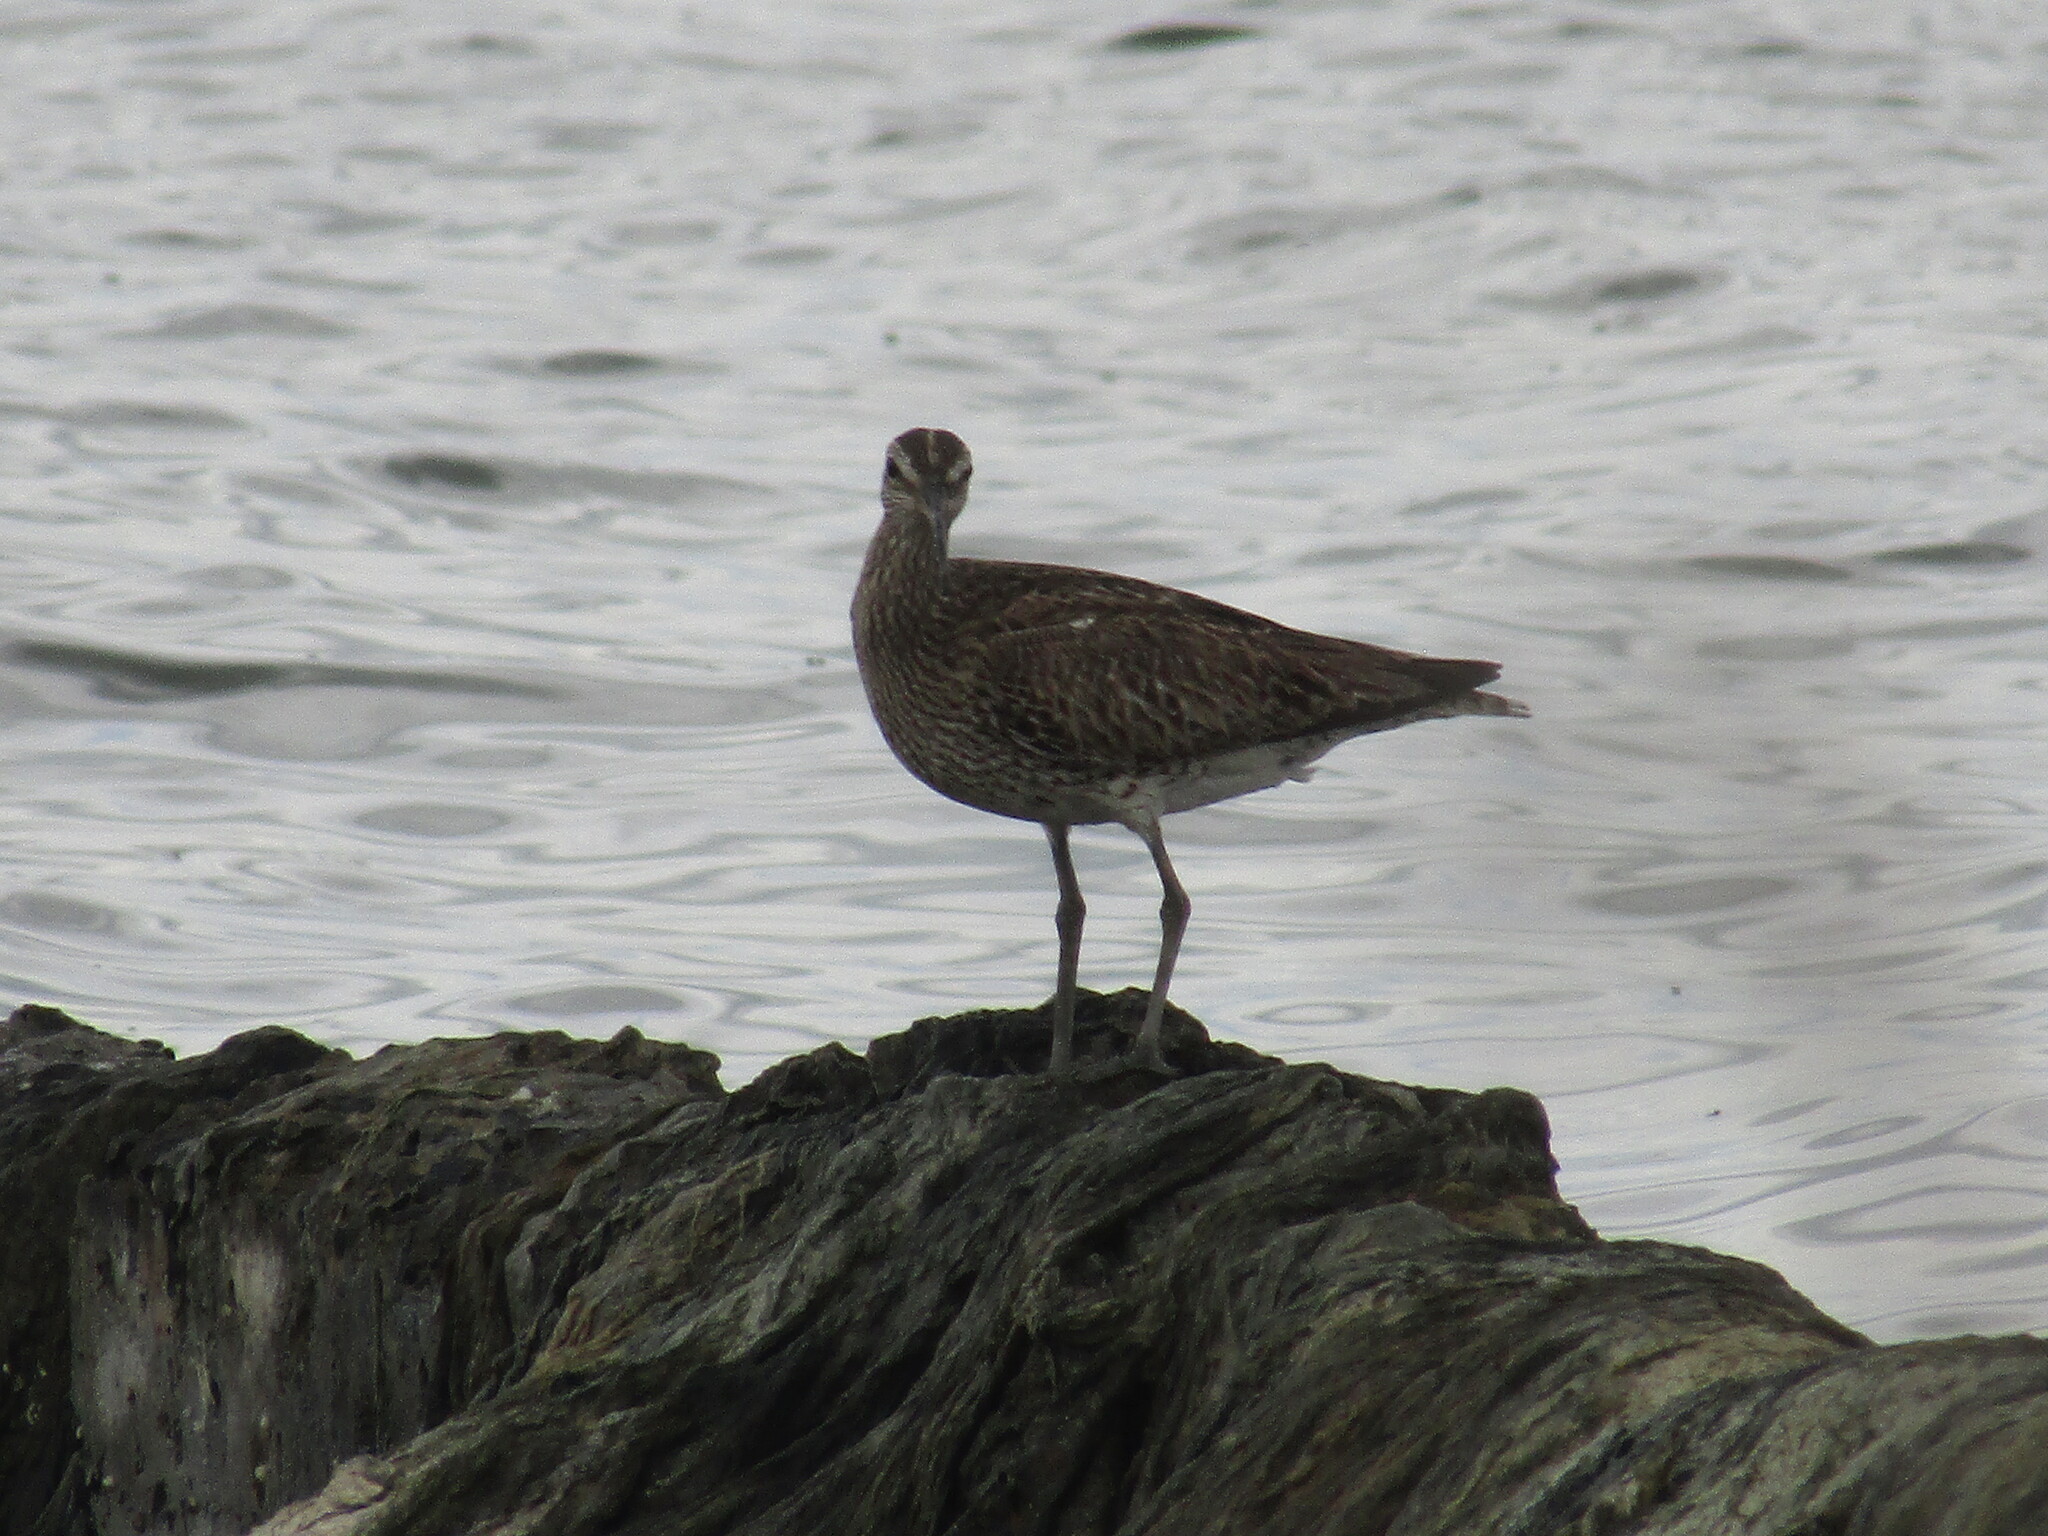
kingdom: Animalia
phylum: Chordata
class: Aves
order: Charadriiformes
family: Scolopacidae
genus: Numenius
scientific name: Numenius phaeopus
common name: Whimbrel
